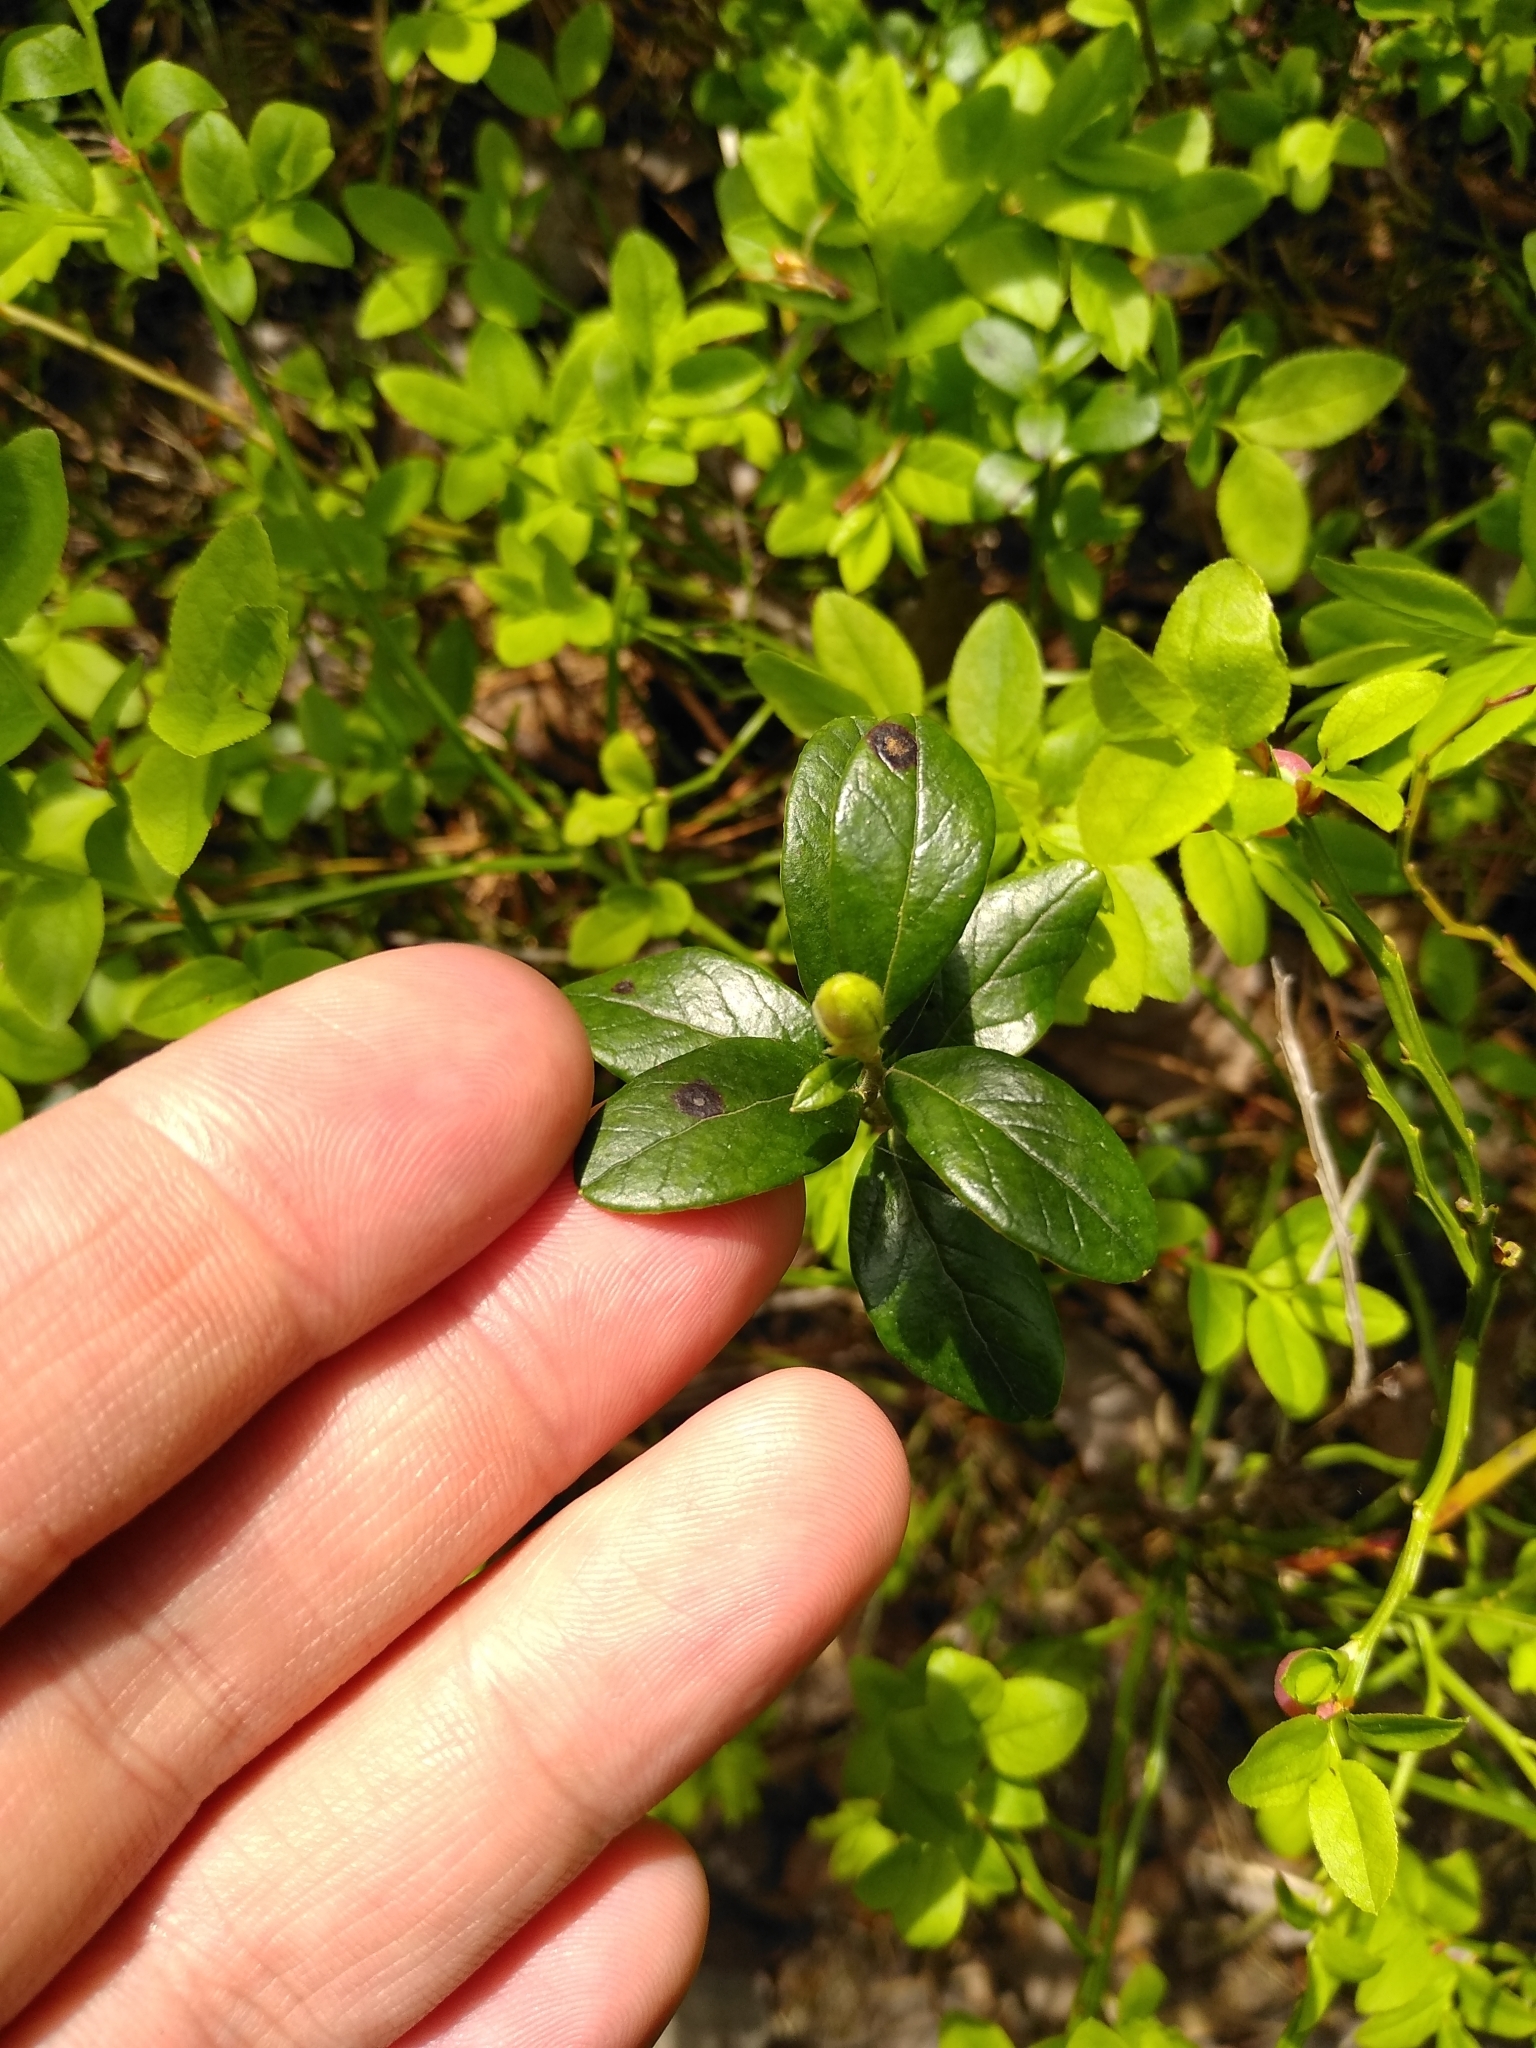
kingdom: Plantae
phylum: Tracheophyta
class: Magnoliopsida
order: Ericales
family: Ericaceae
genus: Vaccinium
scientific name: Vaccinium vitis-idaea
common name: Cowberry
